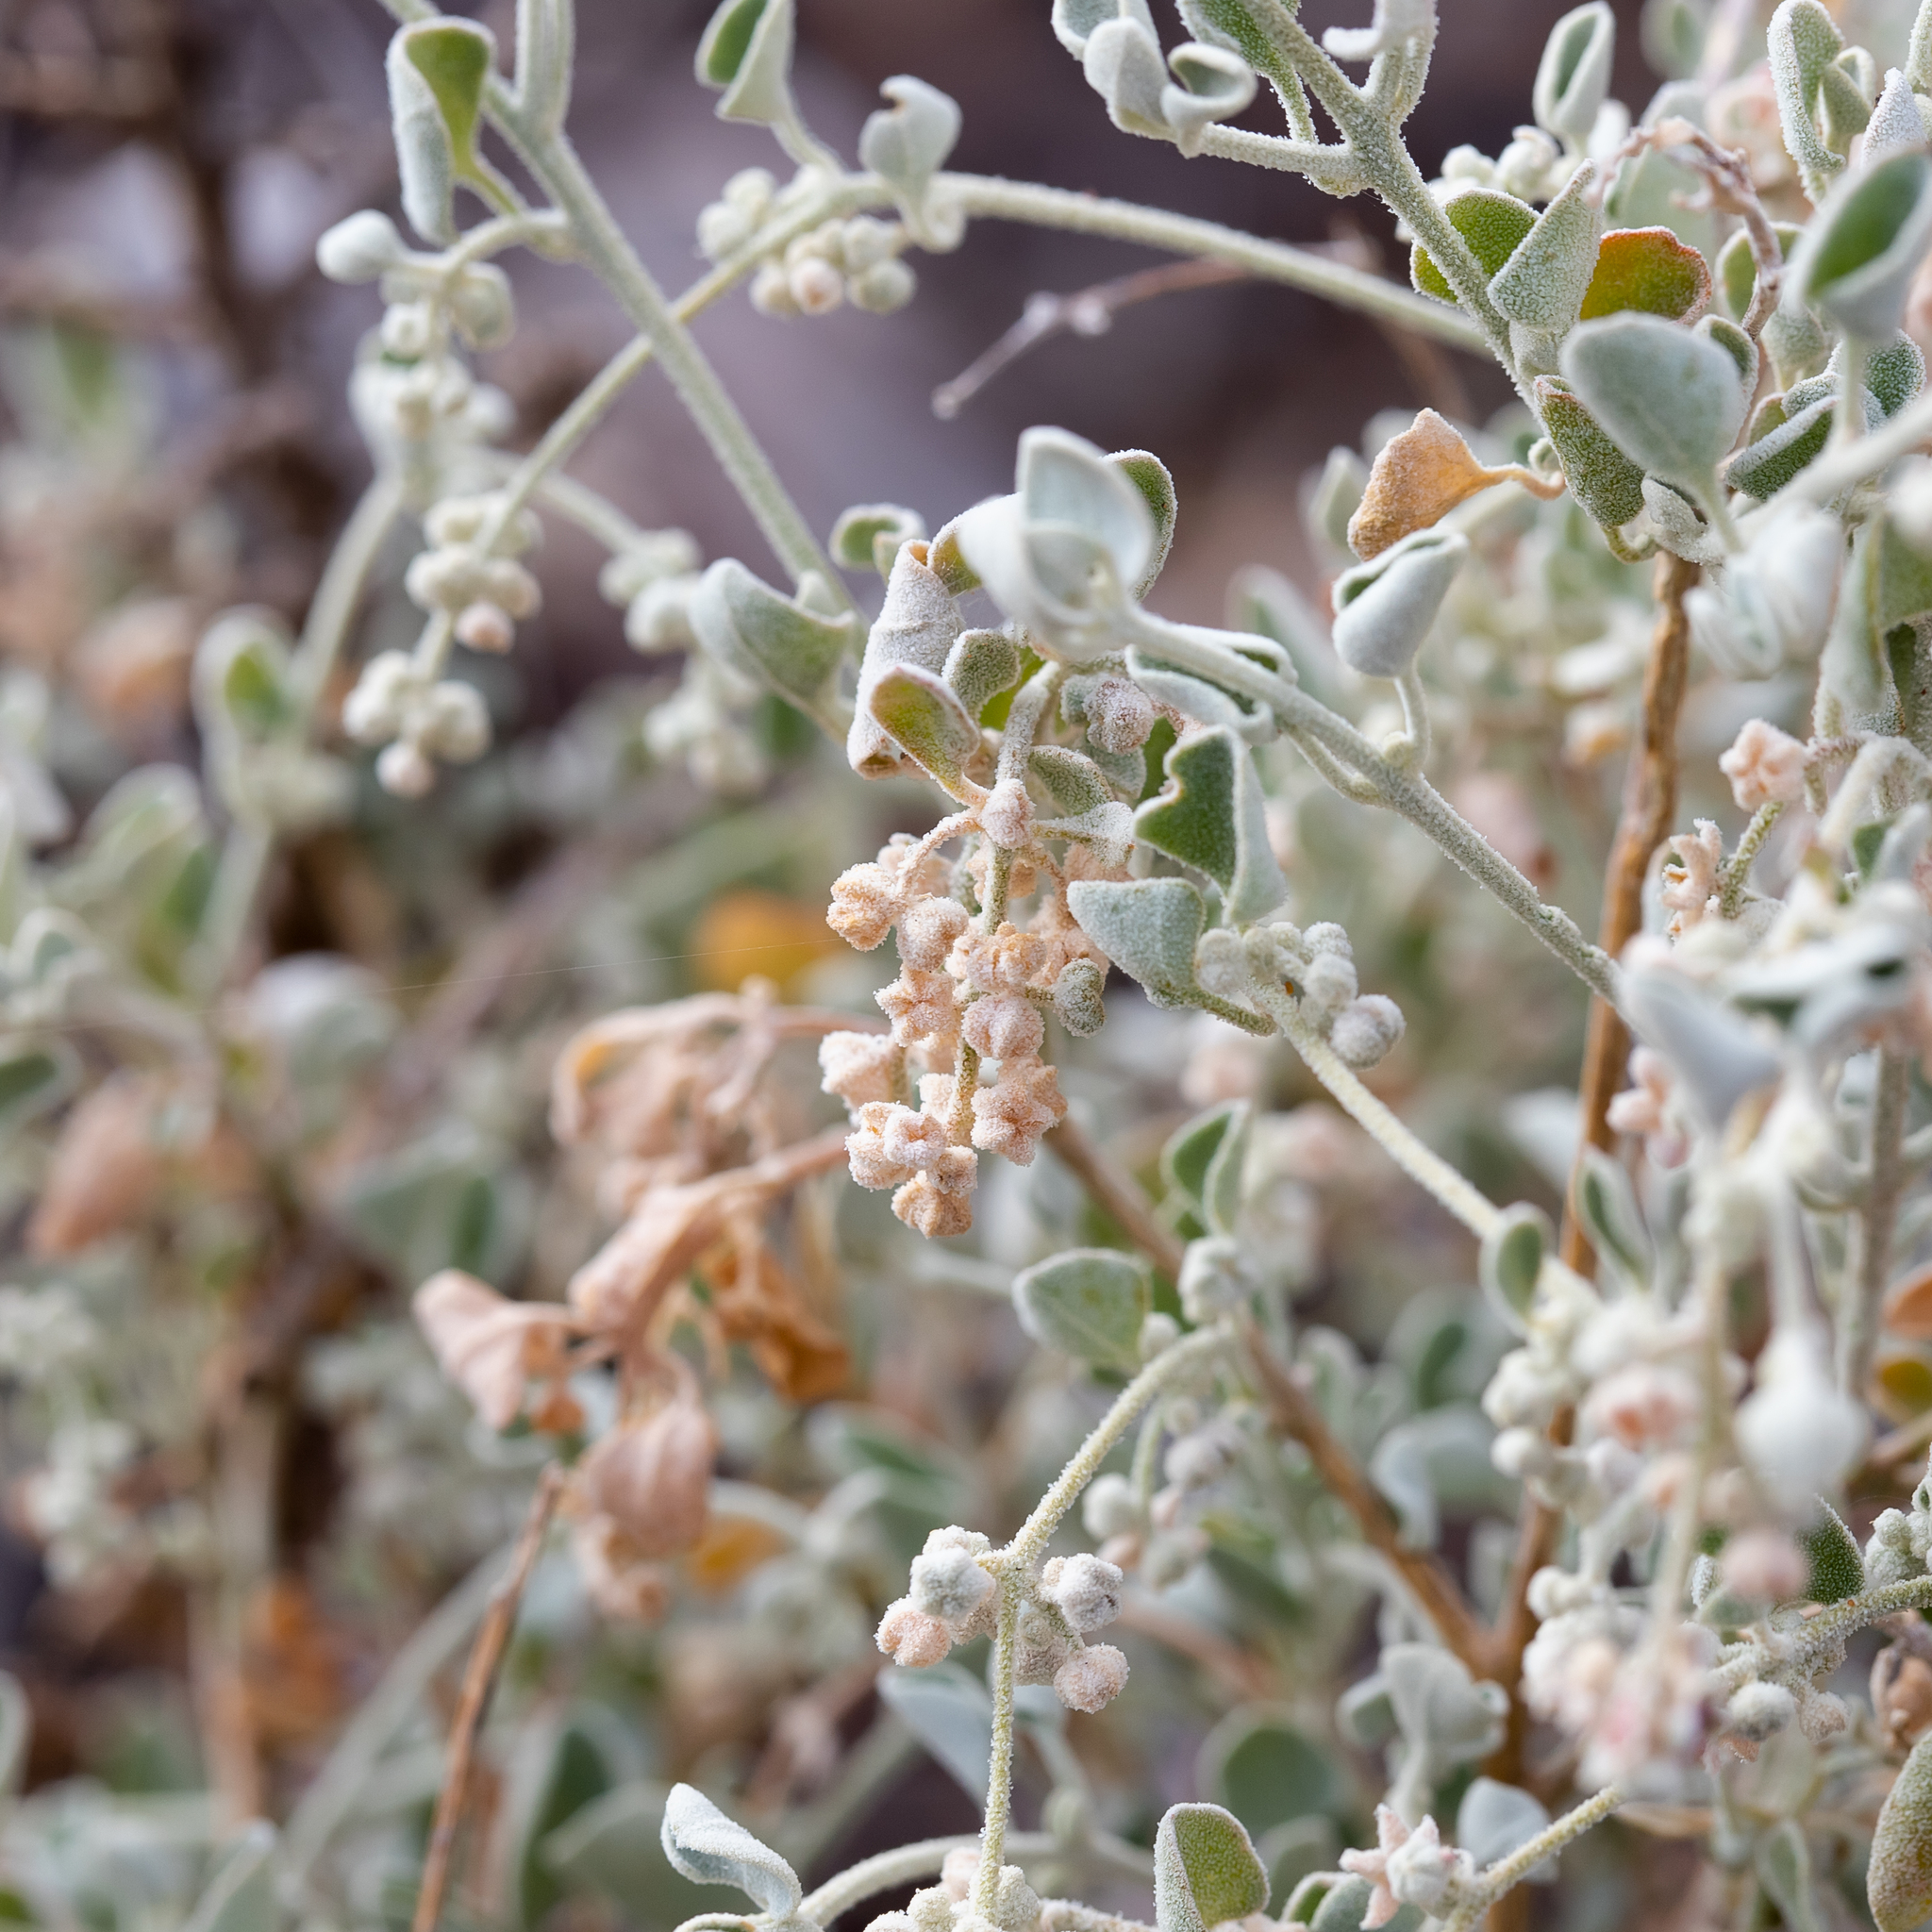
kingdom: Plantae
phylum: Tracheophyta
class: Magnoliopsida
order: Caryophyllales
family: Amaranthaceae
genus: Chenopodium
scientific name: Chenopodium curvispicatum
